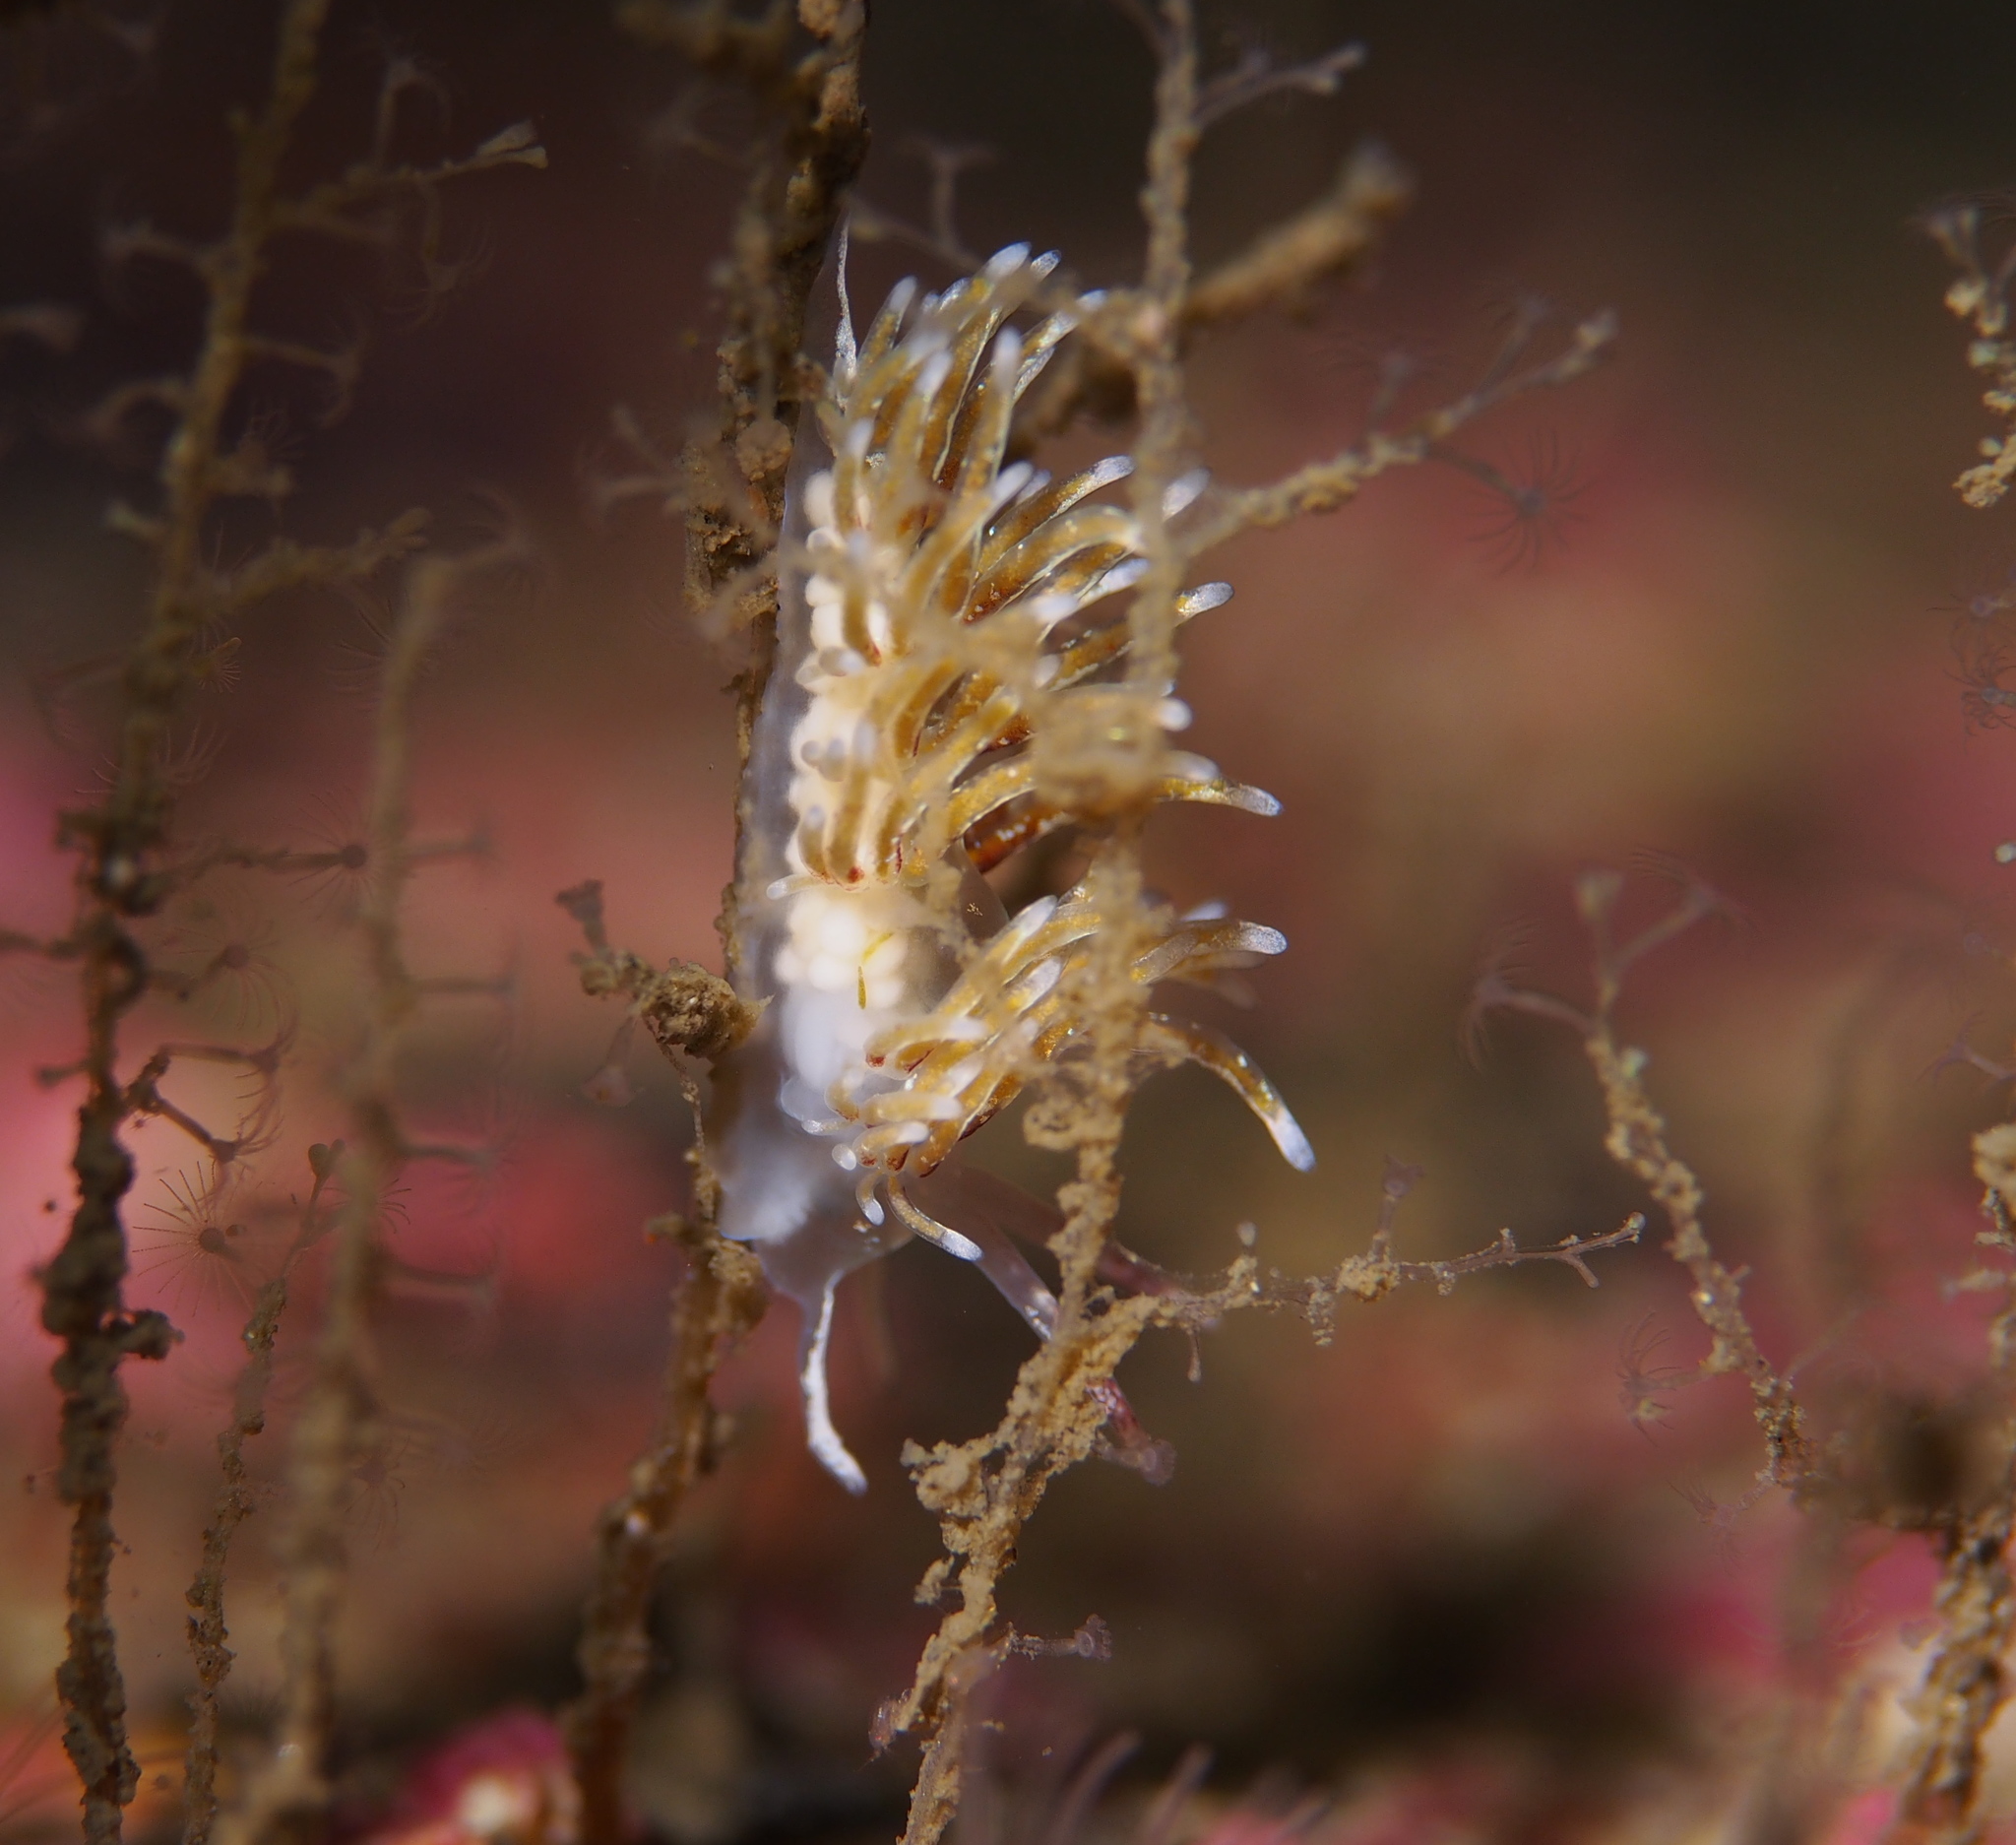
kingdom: Animalia
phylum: Mollusca
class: Gastropoda
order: Nudibranchia
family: Trinchesiidae
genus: Rubramoena
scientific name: Rubramoena rubescens
